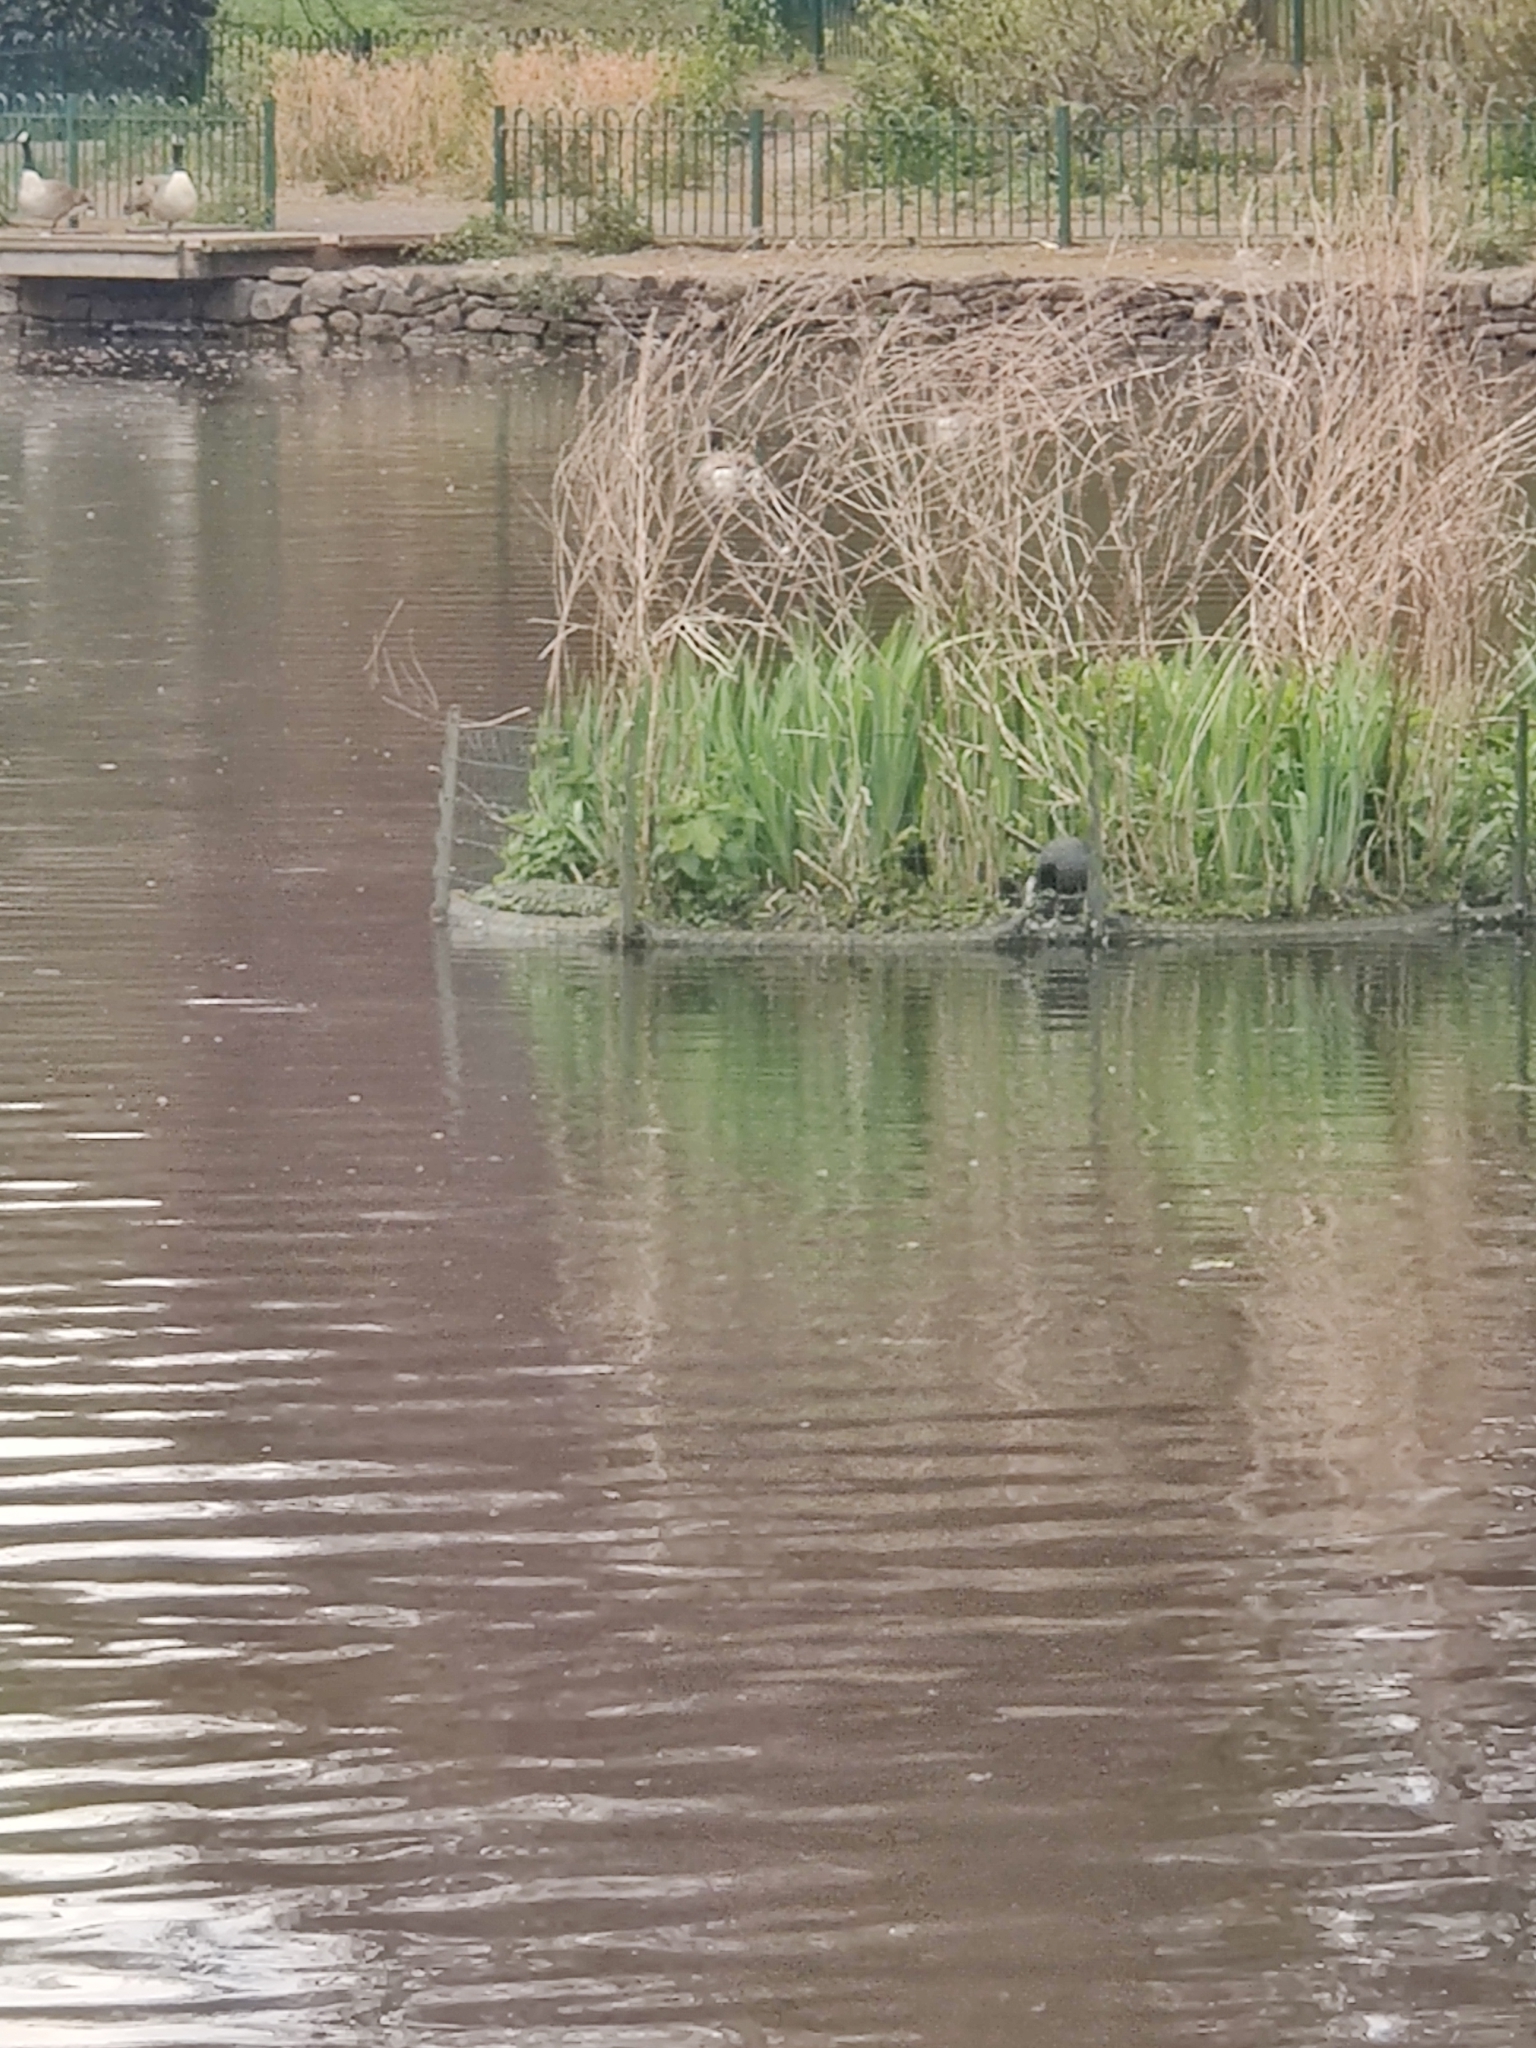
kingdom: Animalia
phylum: Chordata
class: Aves
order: Gruiformes
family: Rallidae
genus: Fulica
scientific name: Fulica atra
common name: Eurasian coot
